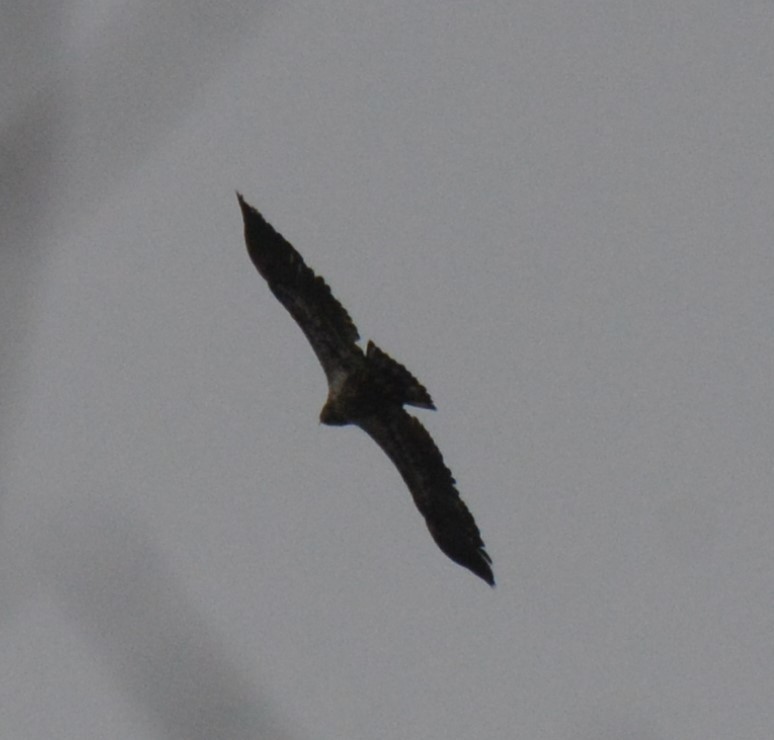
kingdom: Animalia
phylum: Chordata
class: Aves
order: Accipitriformes
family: Accipitridae
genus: Haliaeetus
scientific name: Haliaeetus leucocephalus
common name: Bald eagle
